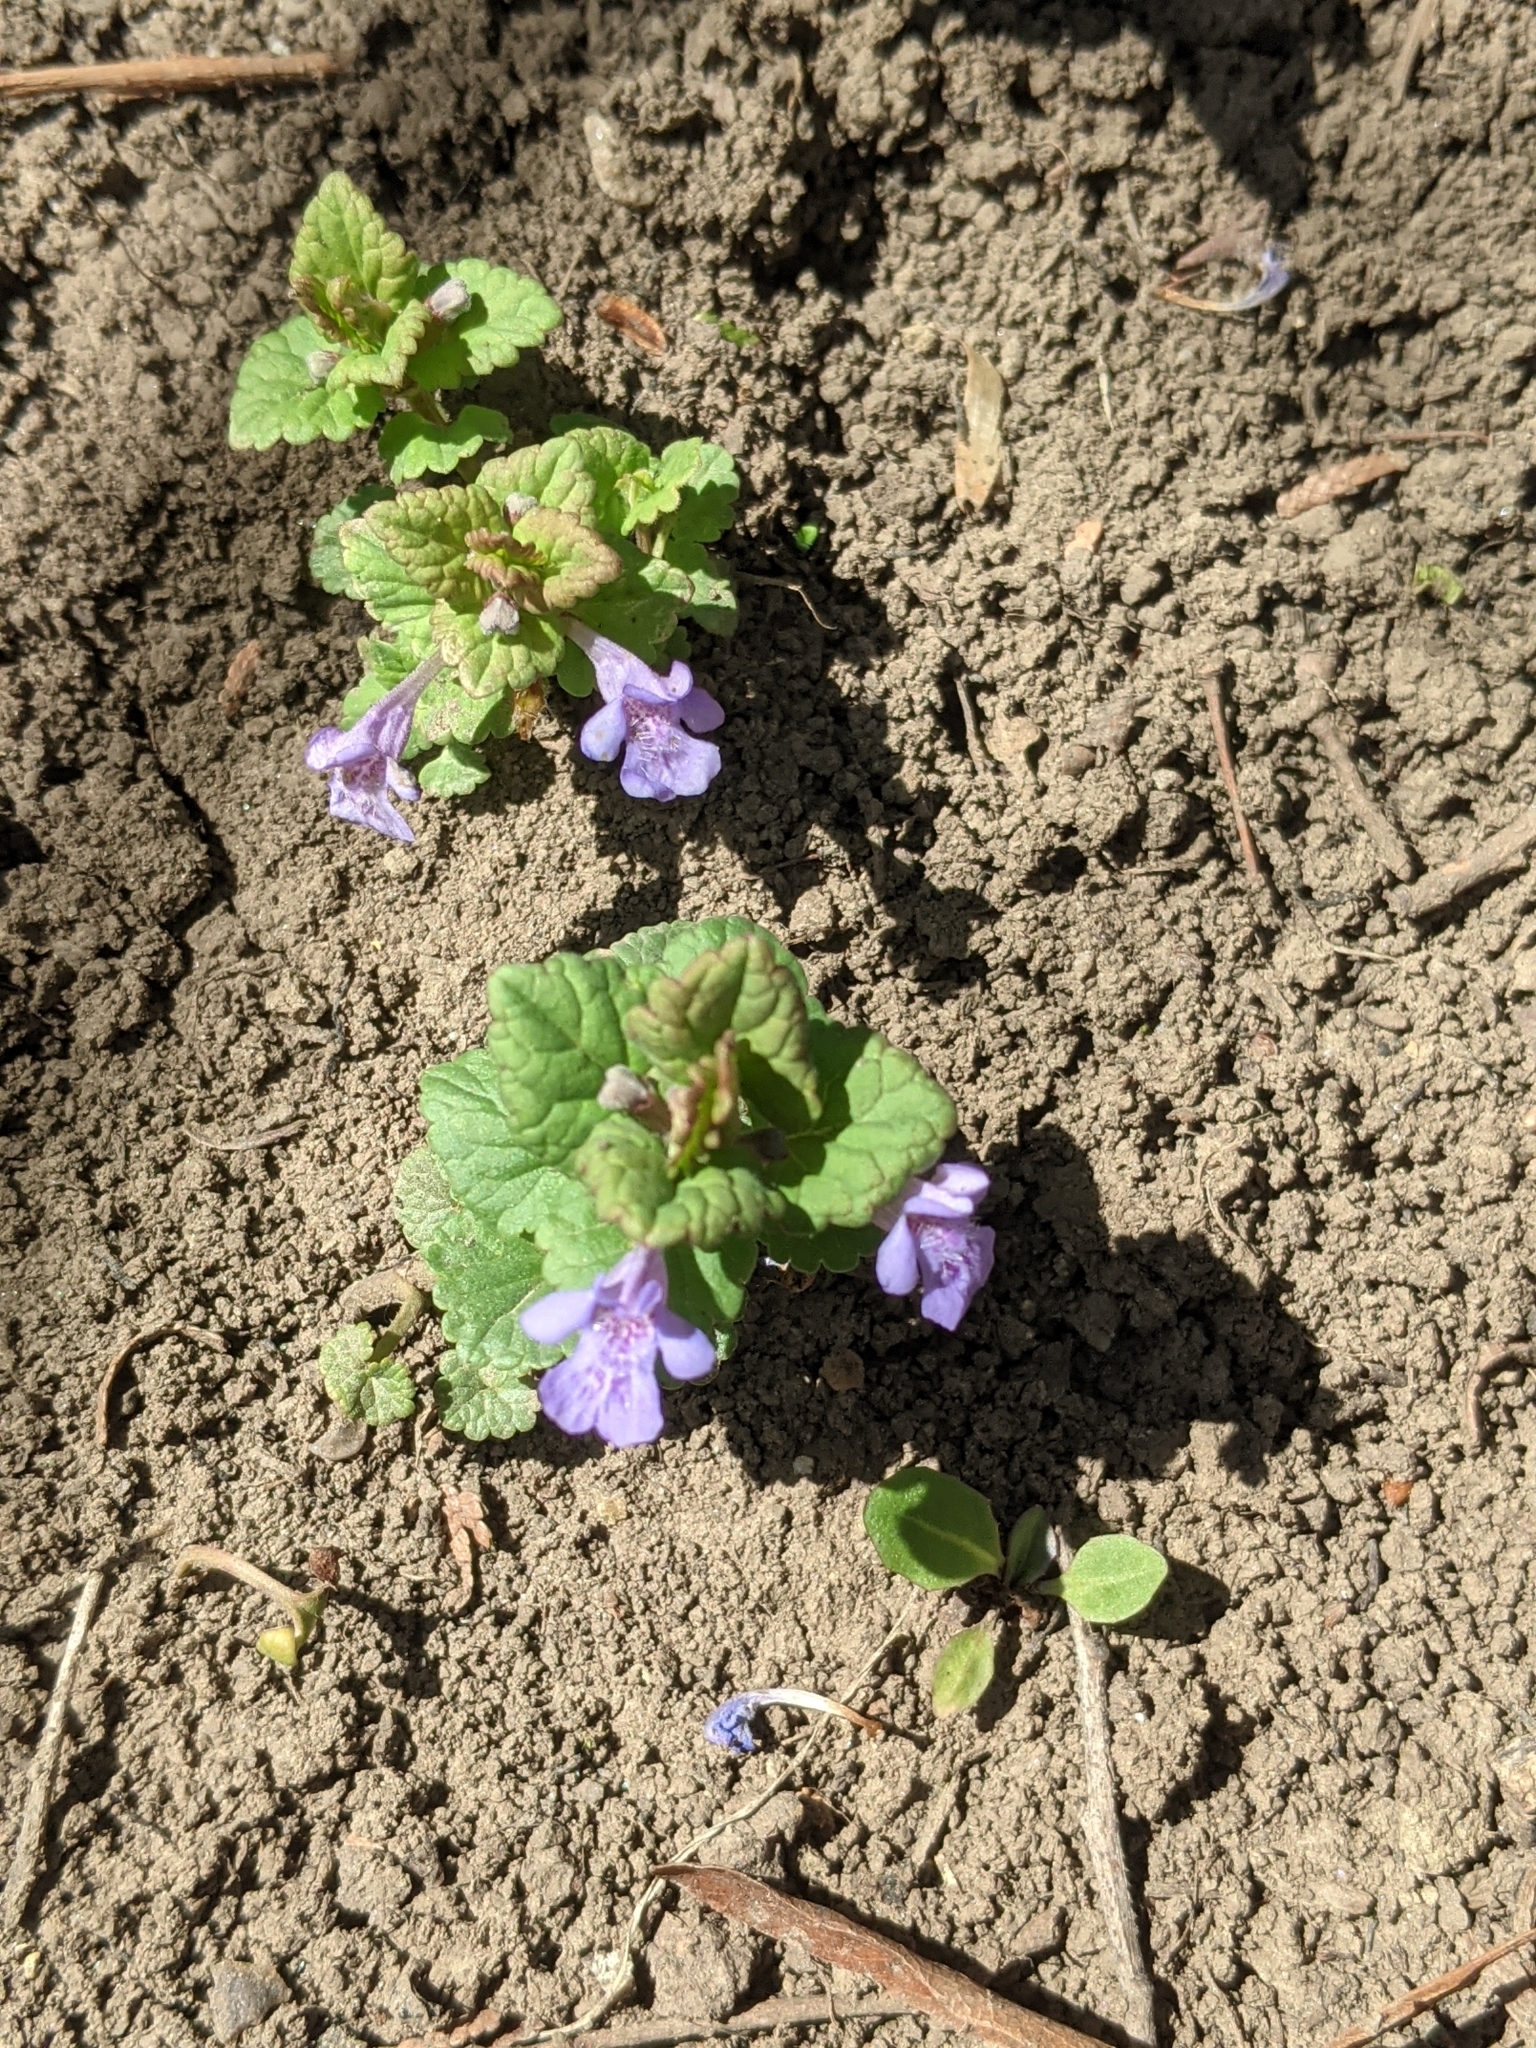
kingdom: Plantae
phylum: Tracheophyta
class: Magnoliopsida
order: Lamiales
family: Lamiaceae
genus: Glechoma
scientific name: Glechoma hederacea
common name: Ground ivy
